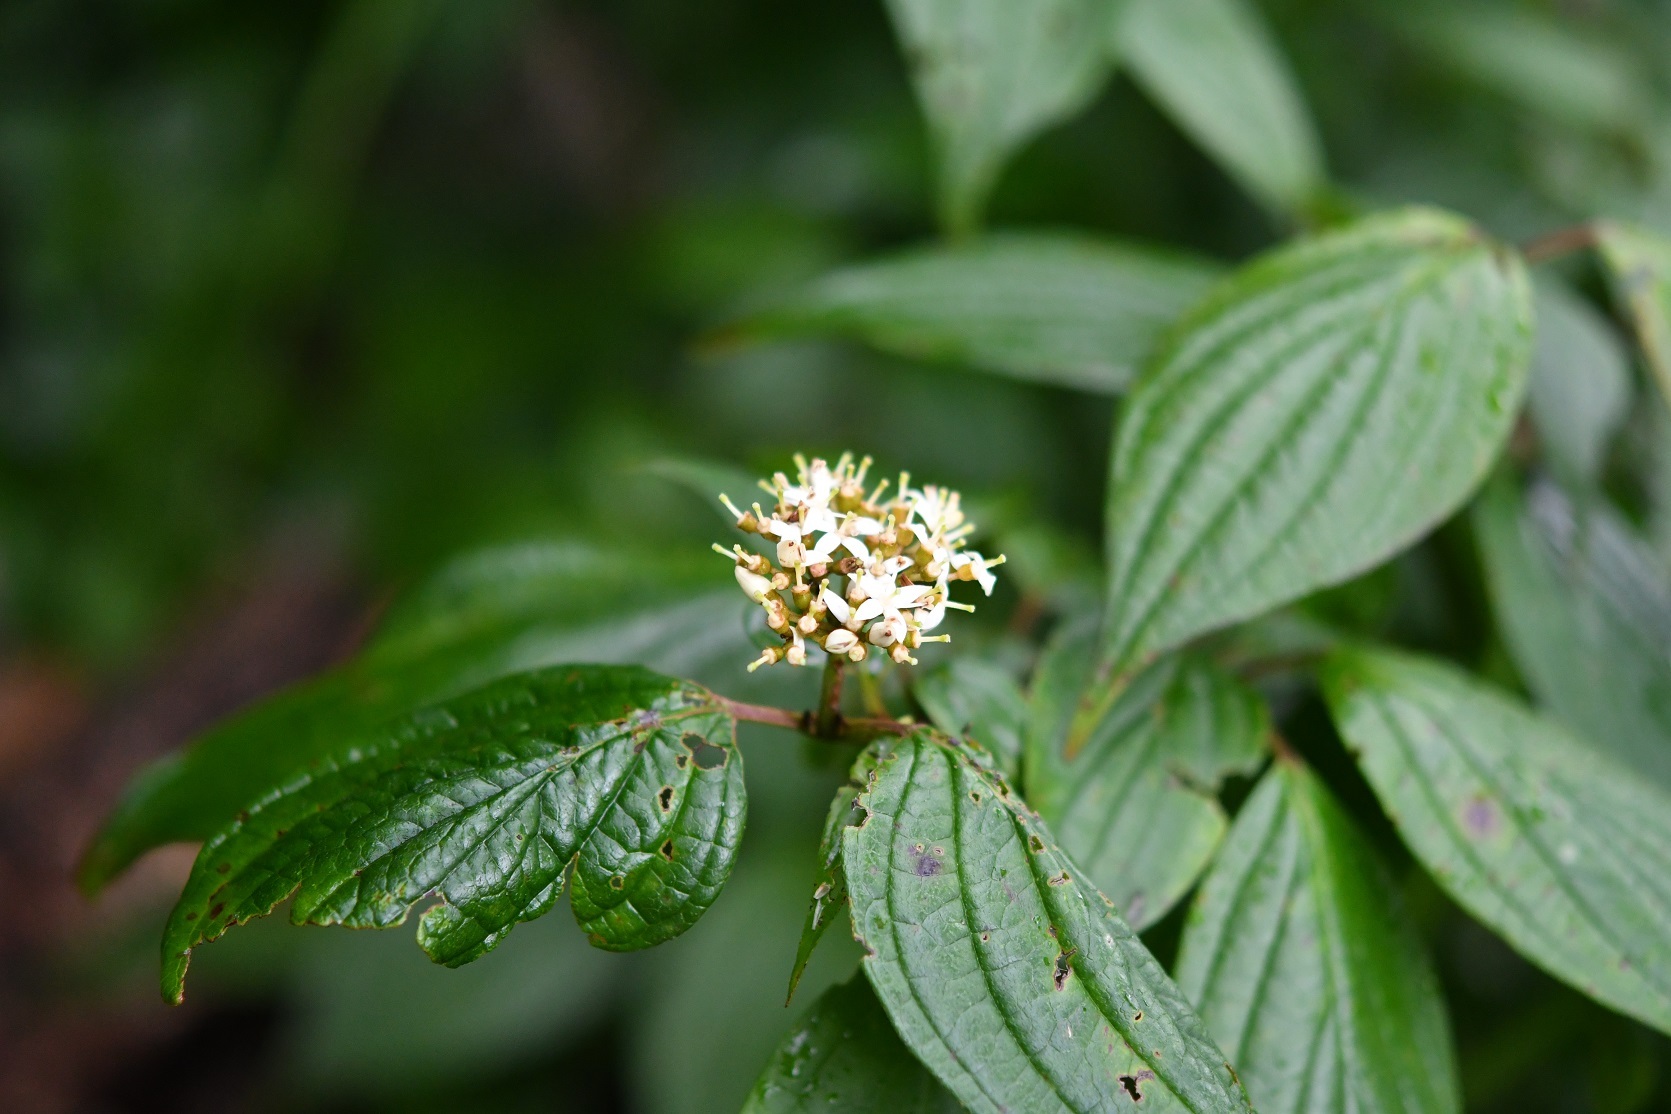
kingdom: Plantae
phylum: Tracheophyta
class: Magnoliopsida
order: Cornales
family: Cornaceae
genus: Cornus
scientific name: Cornus excelsa
